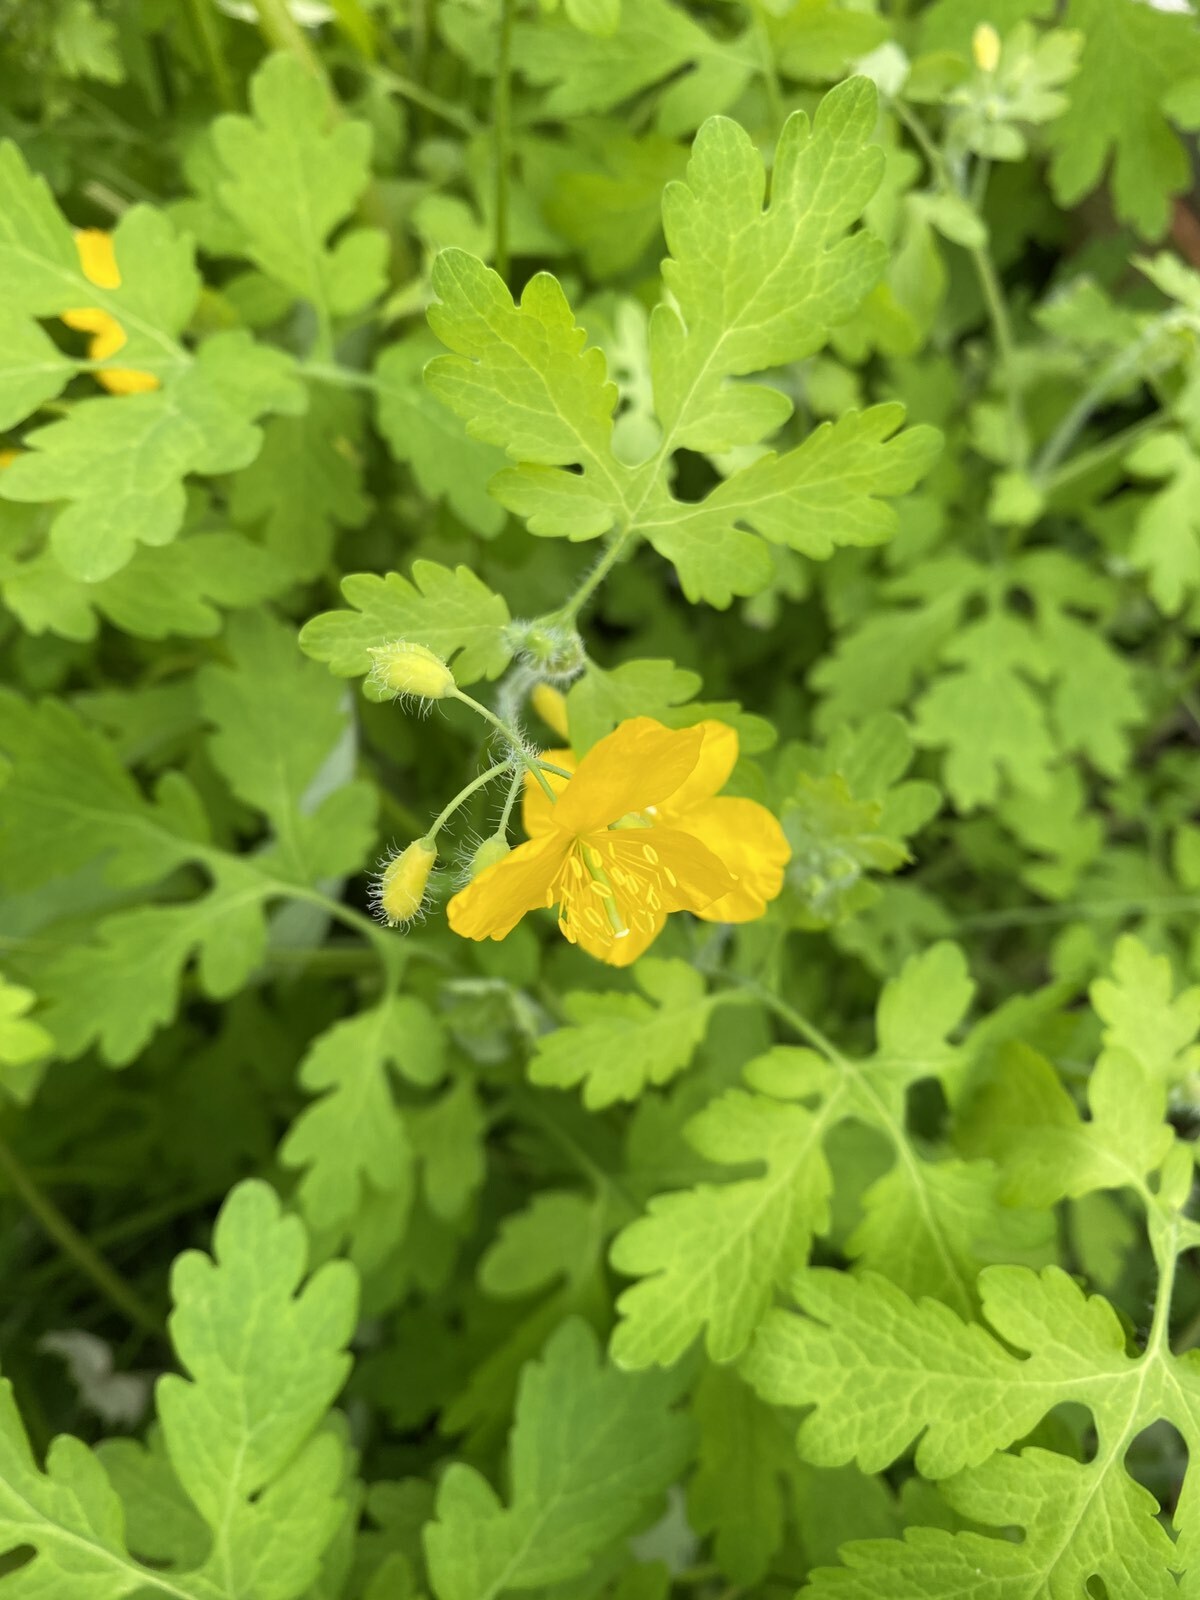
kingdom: Plantae
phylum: Tracheophyta
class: Magnoliopsida
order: Ranunculales
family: Papaveraceae
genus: Chelidonium
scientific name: Chelidonium majus
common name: Greater celandine
